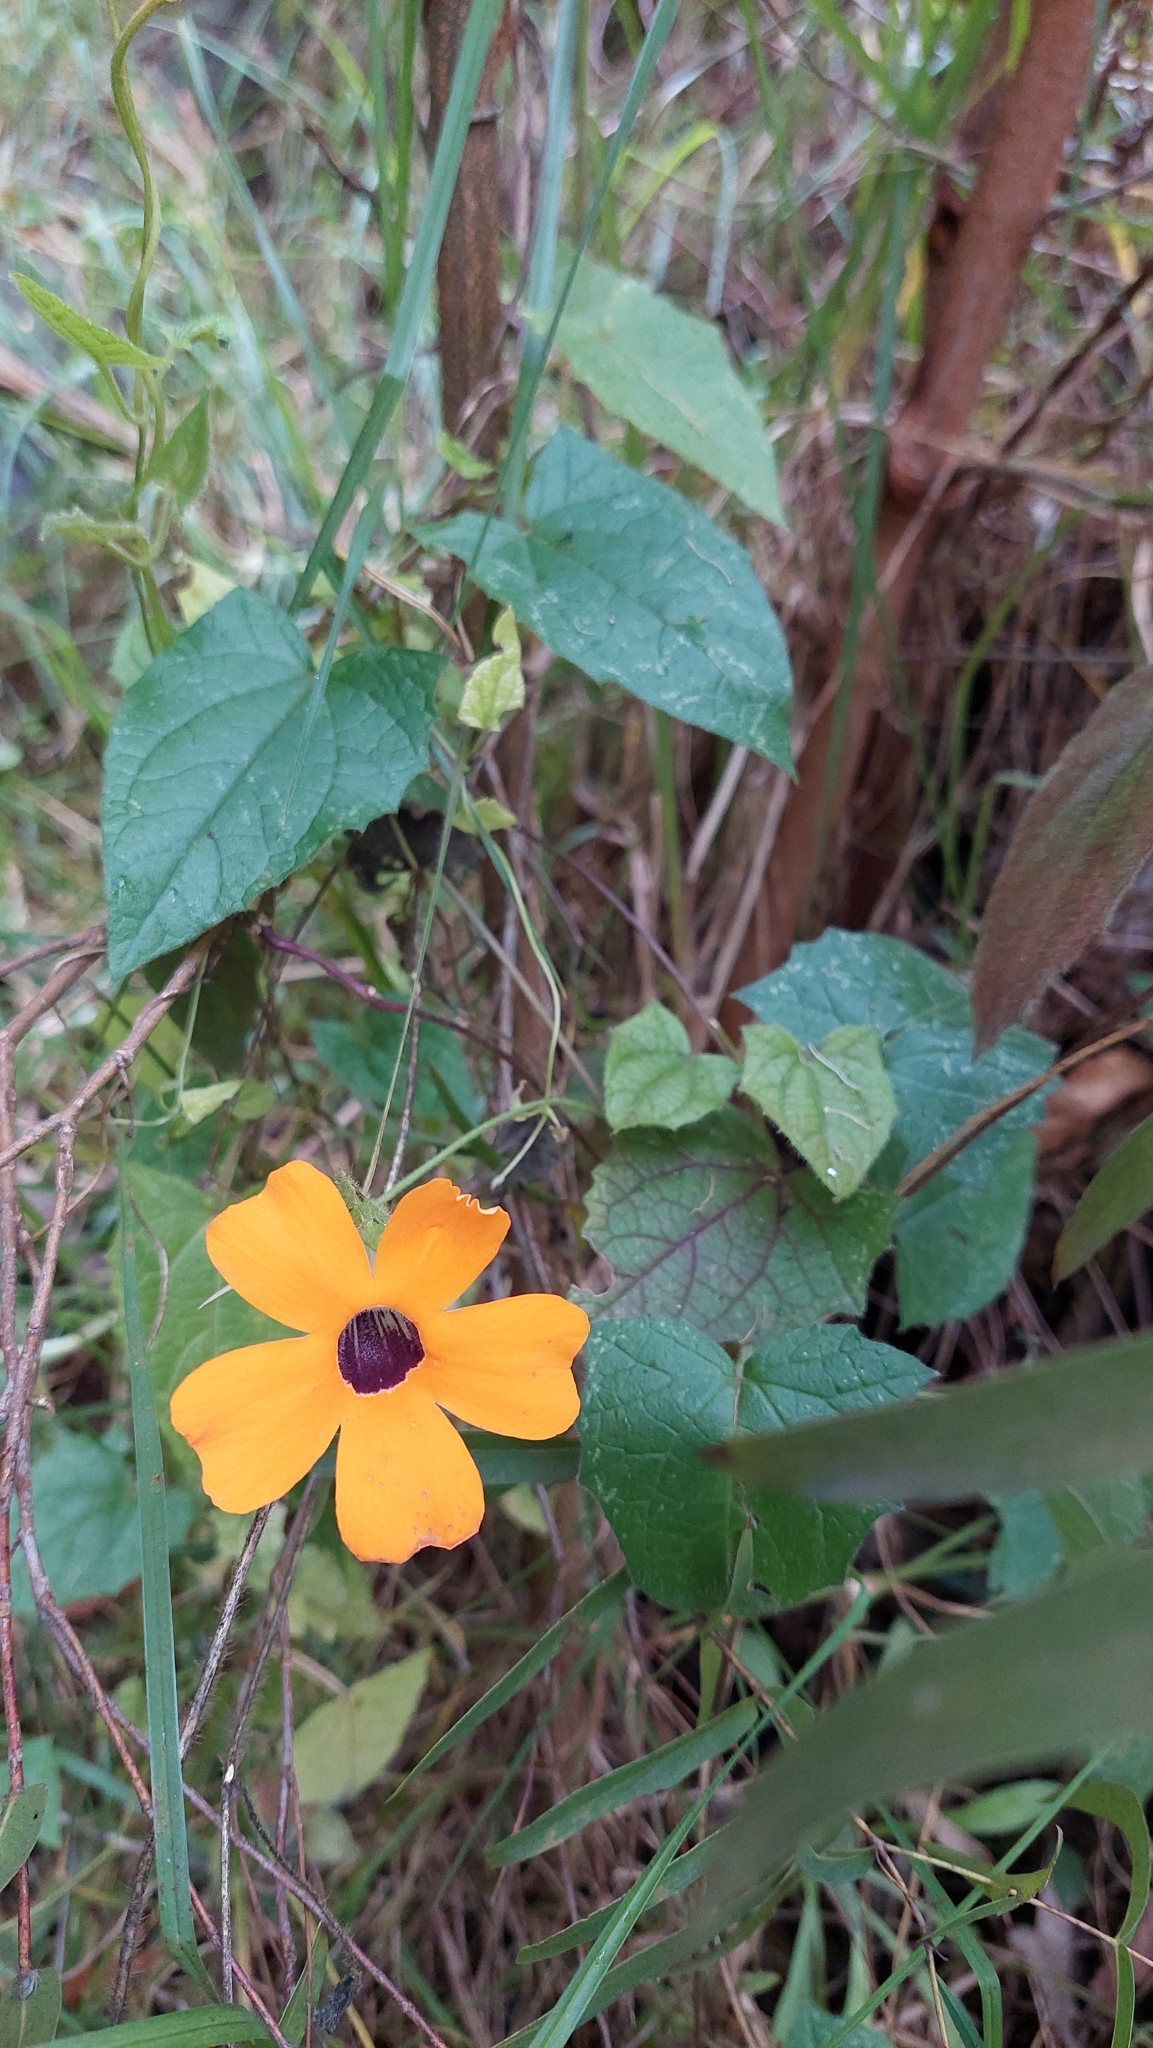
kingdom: Plantae
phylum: Tracheophyta
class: Magnoliopsida
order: Lamiales
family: Acanthaceae
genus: Thunbergia
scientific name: Thunbergia alata
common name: Blackeyed susan vine
